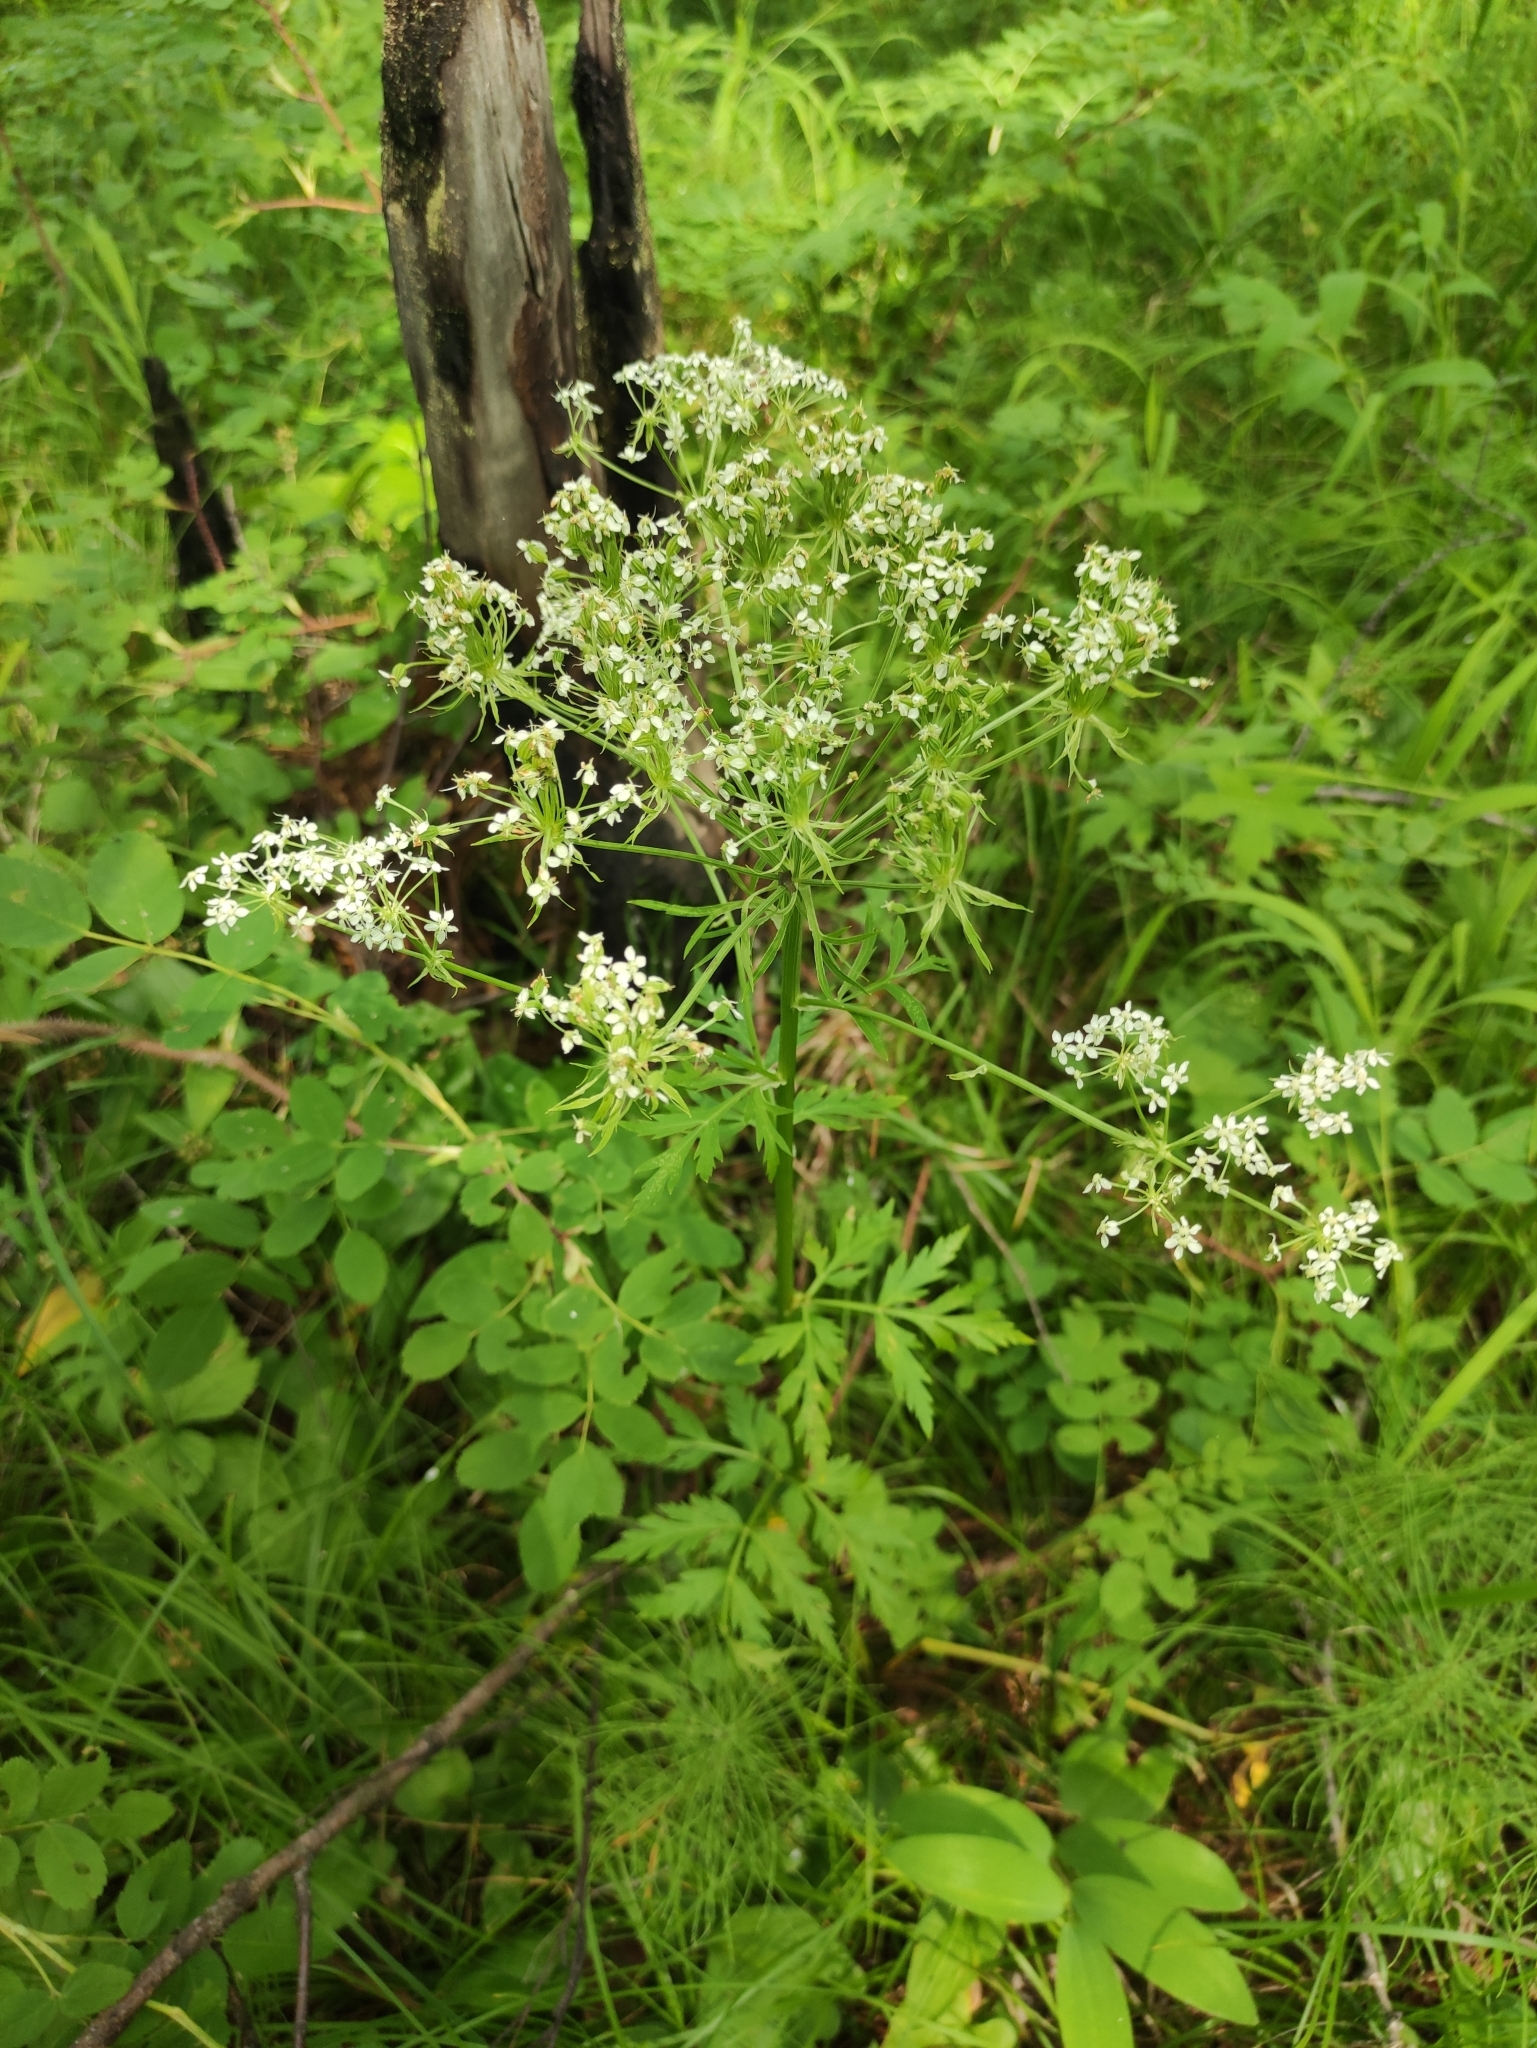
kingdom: Plantae
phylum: Tracheophyta
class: Magnoliopsida
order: Apiales
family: Apiaceae
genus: Pleurospermum
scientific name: Pleurospermum uralense
